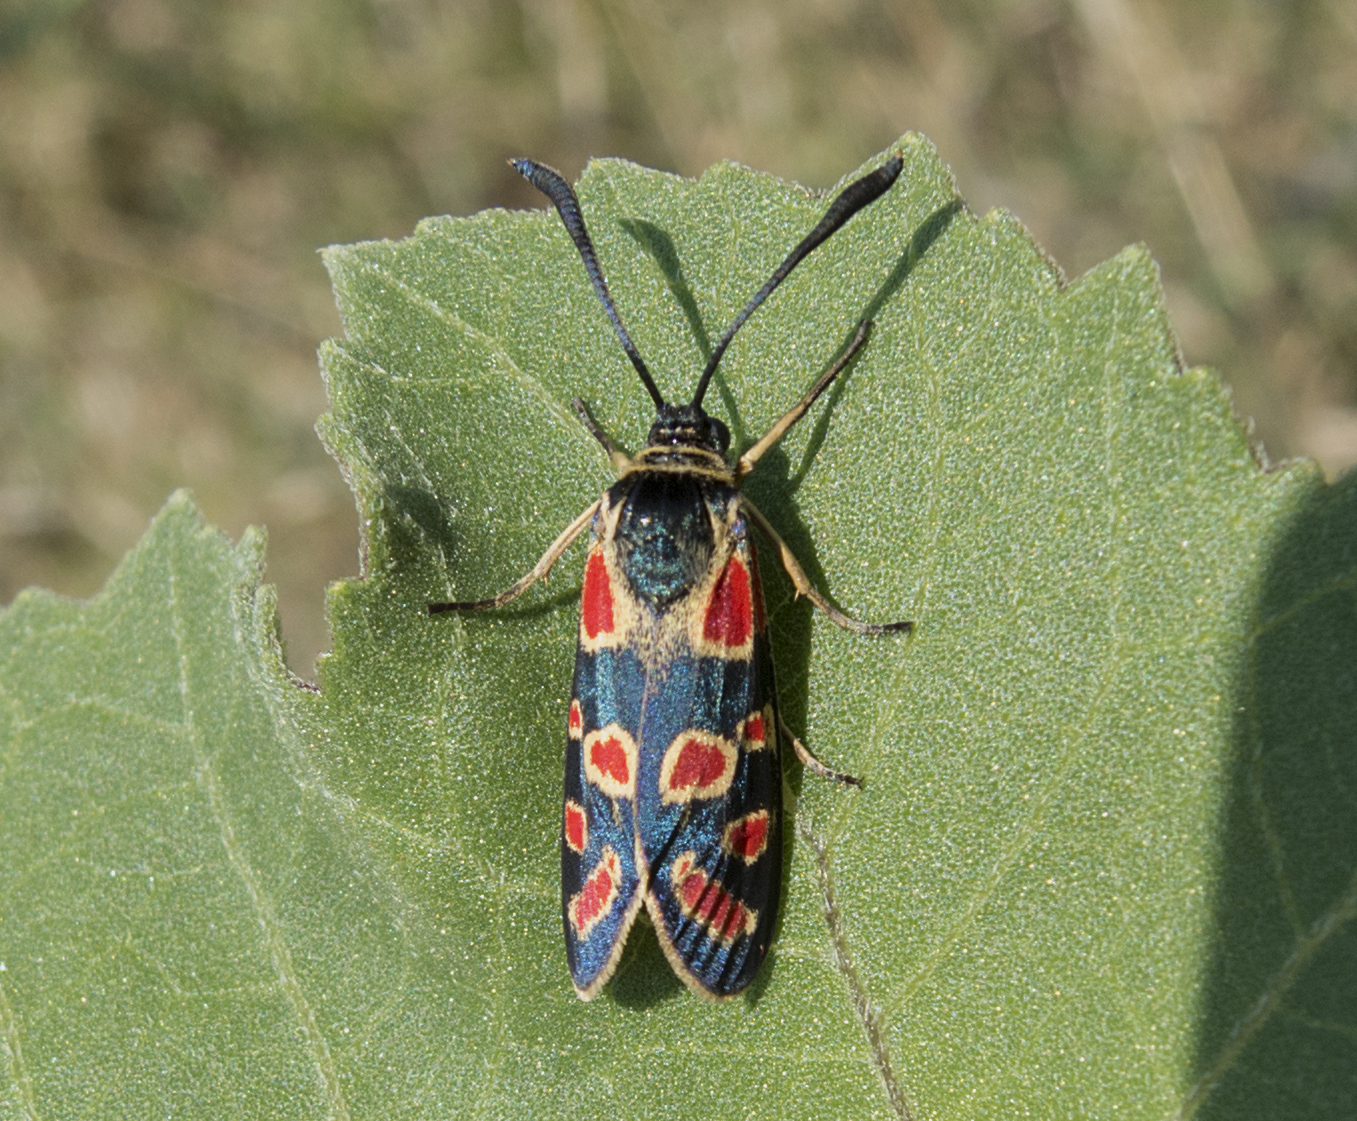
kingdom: Animalia
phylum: Arthropoda
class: Insecta
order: Lepidoptera
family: Zygaenidae
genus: Zygaena
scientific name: Zygaena carniolica
